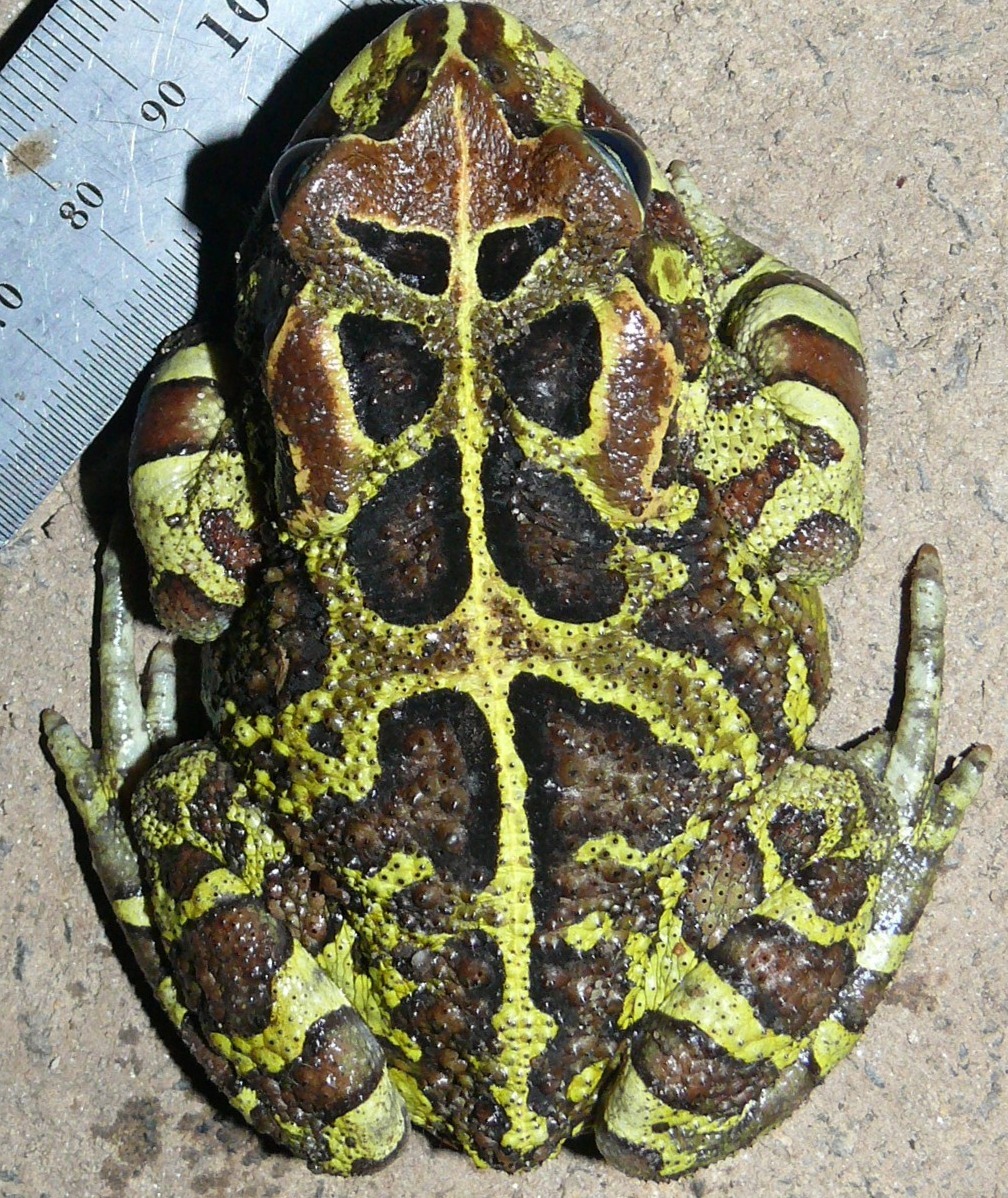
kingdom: Animalia
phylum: Chordata
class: Amphibia
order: Anura
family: Bufonidae
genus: Sclerophrys
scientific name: Sclerophrys pantherina
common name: Panther toad
